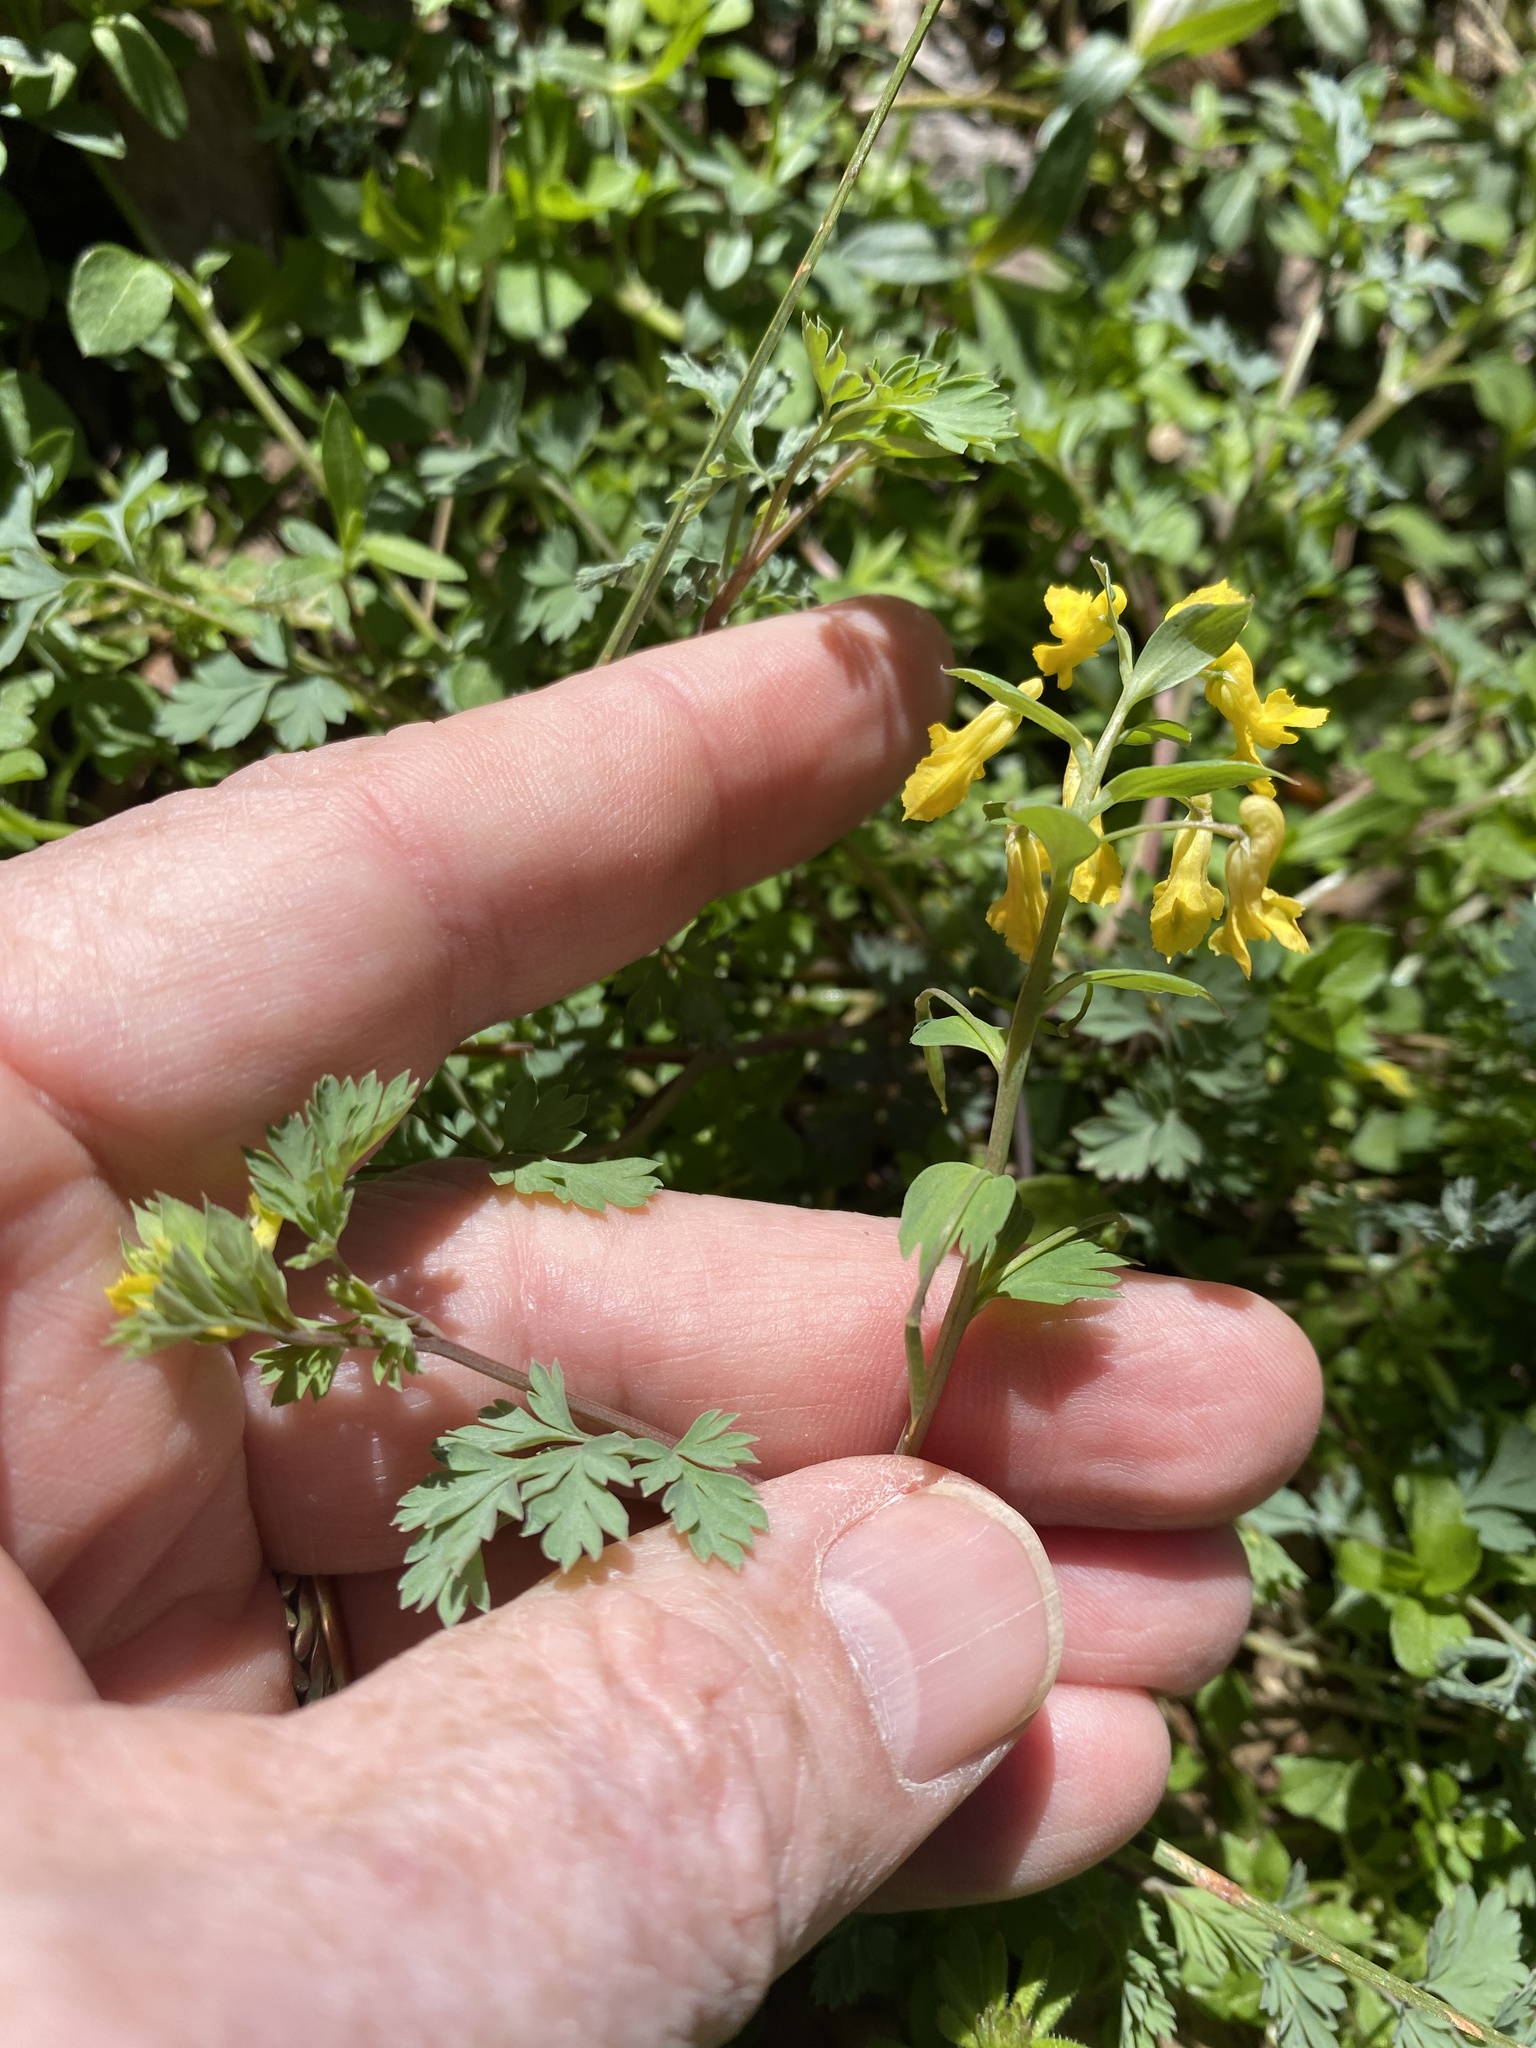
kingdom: Plantae
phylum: Tracheophyta
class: Magnoliopsida
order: Ranunculales
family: Papaveraceae
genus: Corydalis
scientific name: Corydalis flavula
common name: Yellow corydalis
